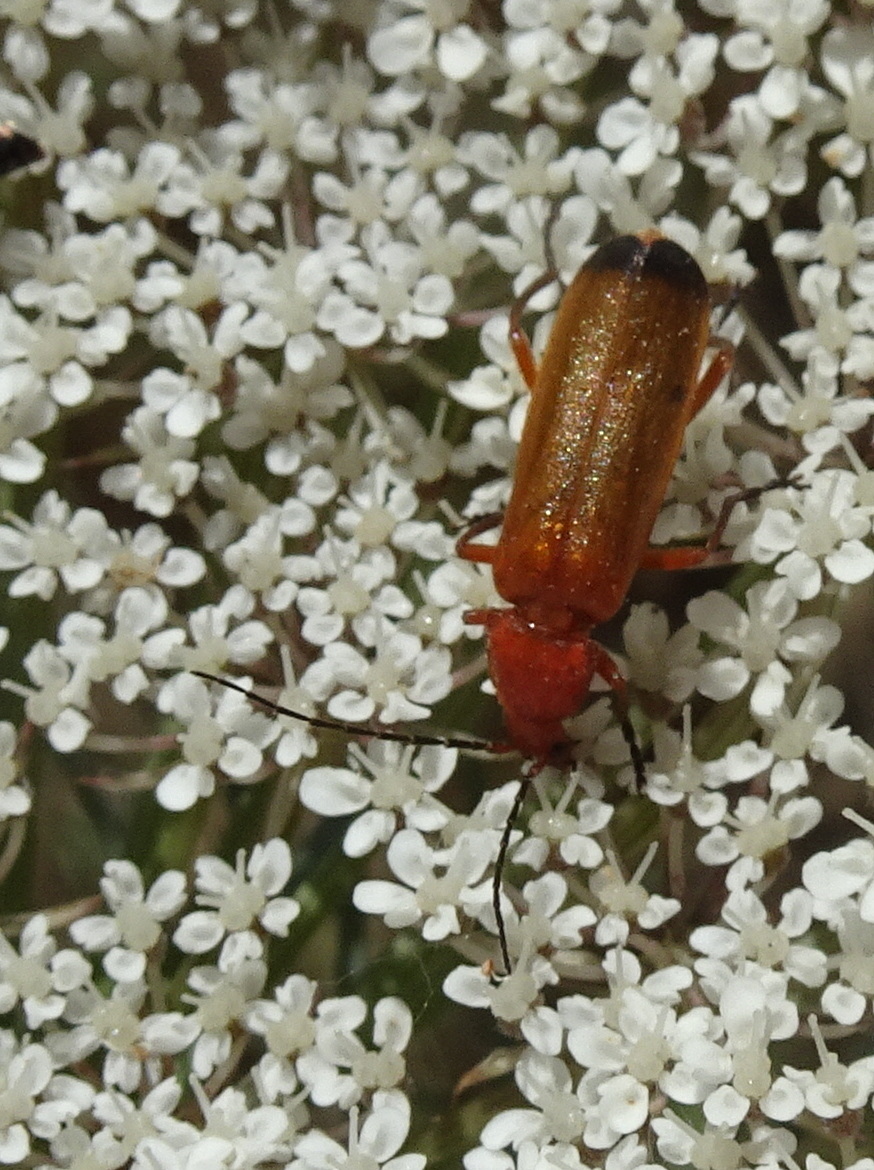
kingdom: Animalia
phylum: Arthropoda
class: Insecta
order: Coleoptera
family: Cantharidae
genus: Rhagonycha
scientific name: Rhagonycha fulva
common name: Common red soldier beetle
